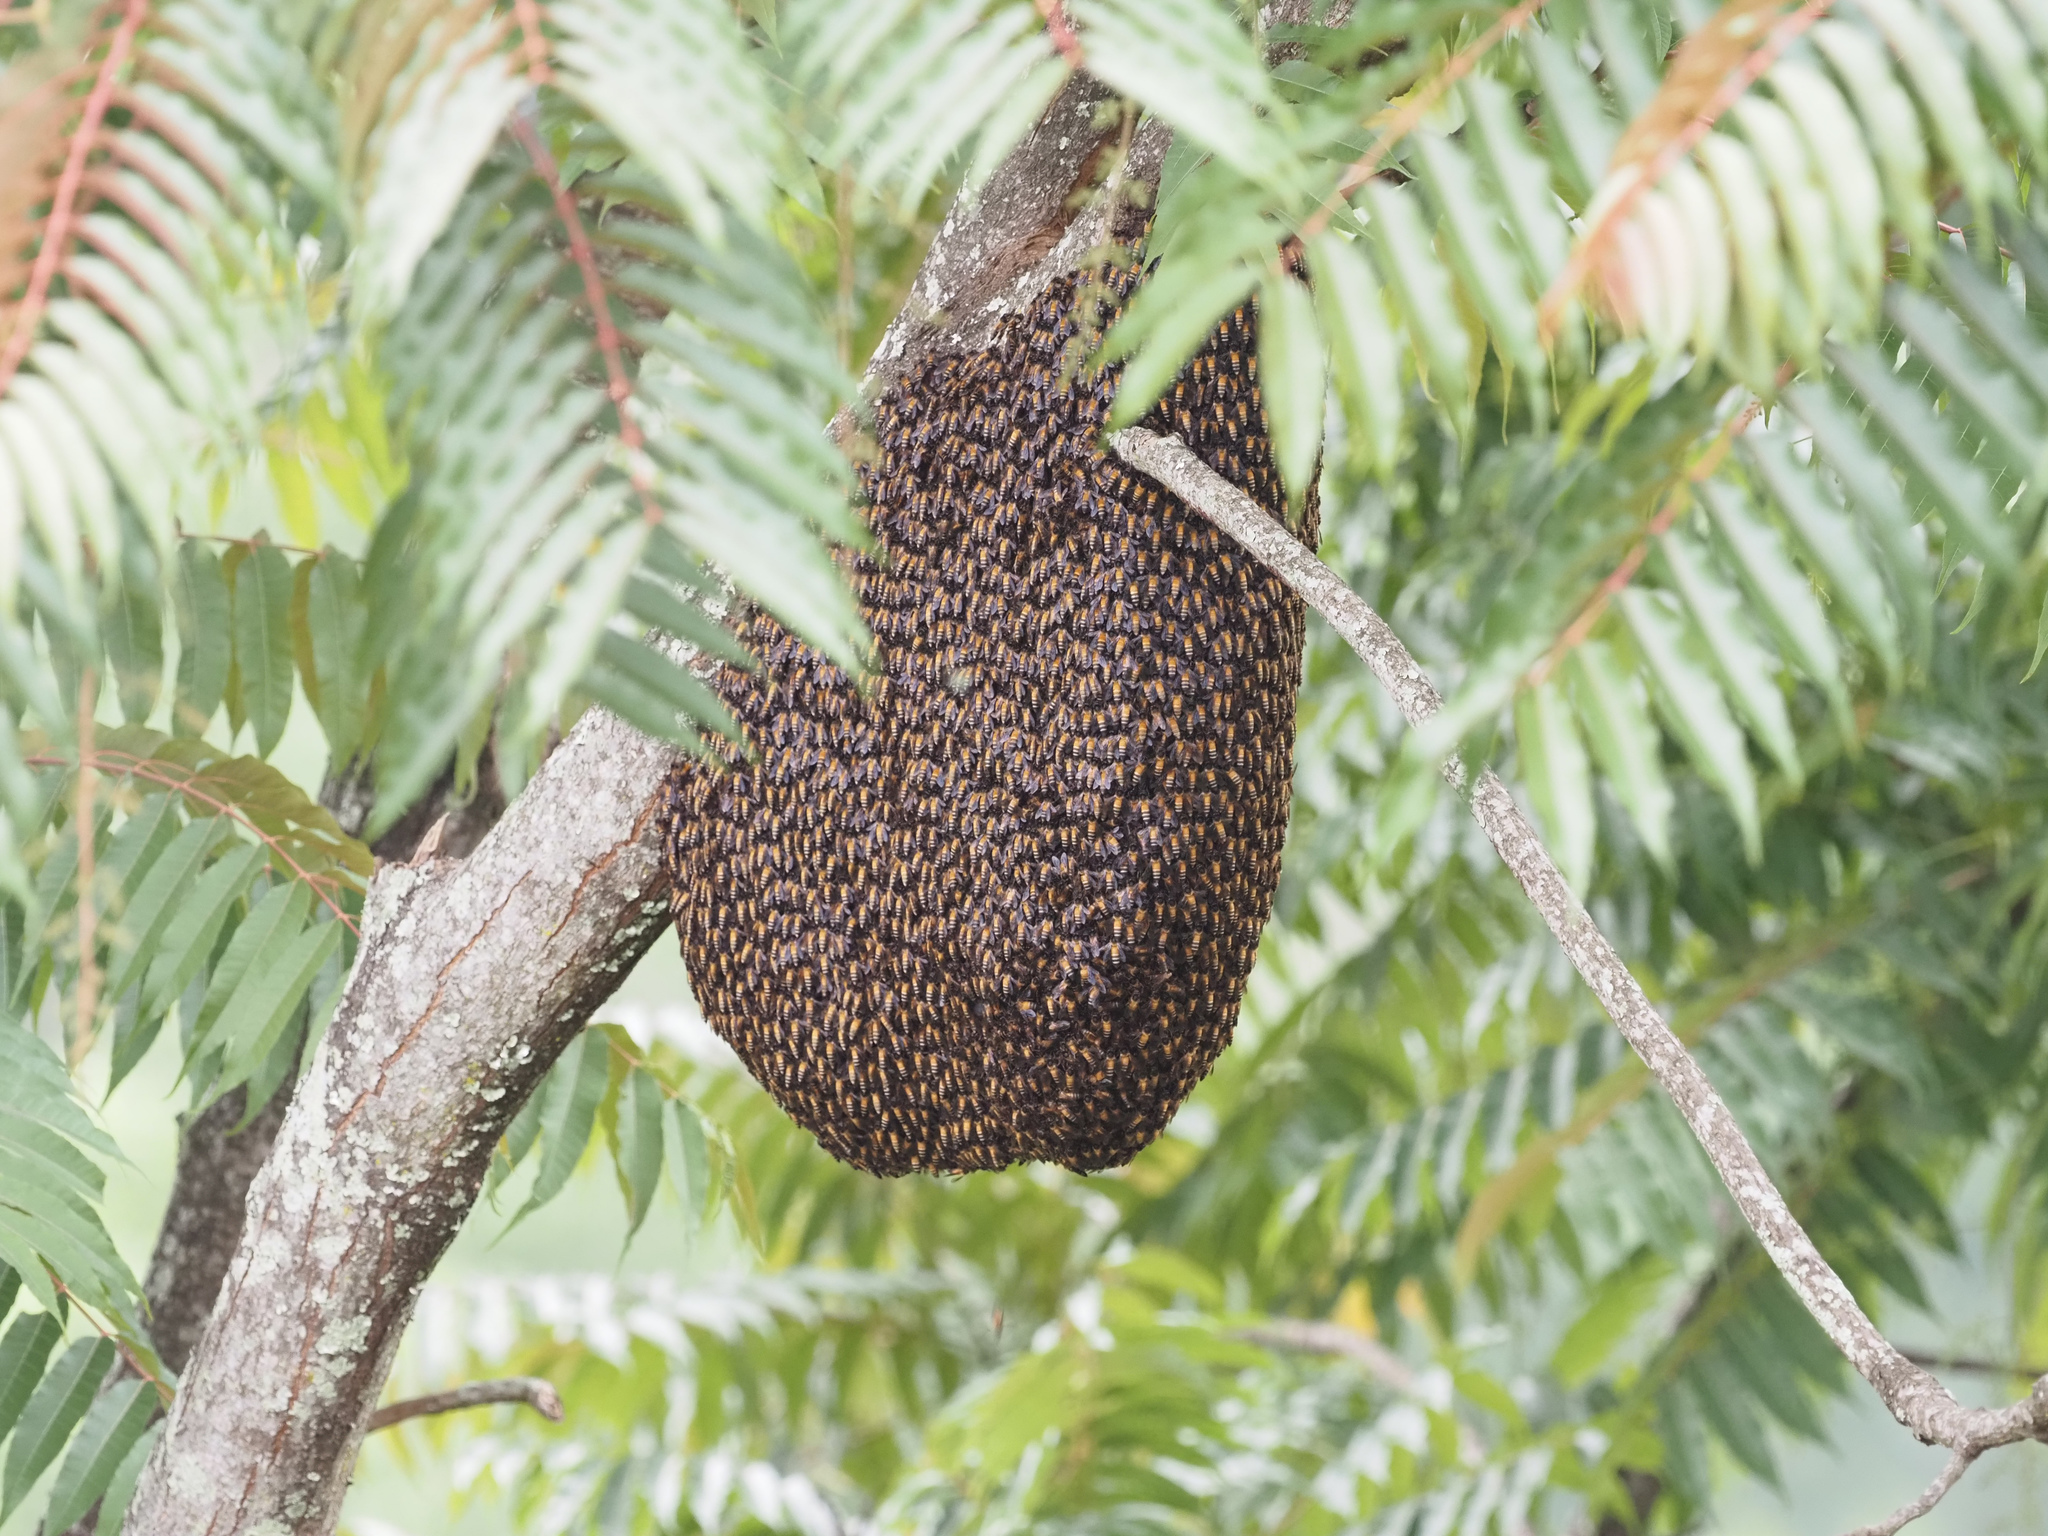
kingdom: Animalia
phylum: Arthropoda
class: Insecta
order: Hymenoptera
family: Apidae
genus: Apis
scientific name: Apis dorsata
